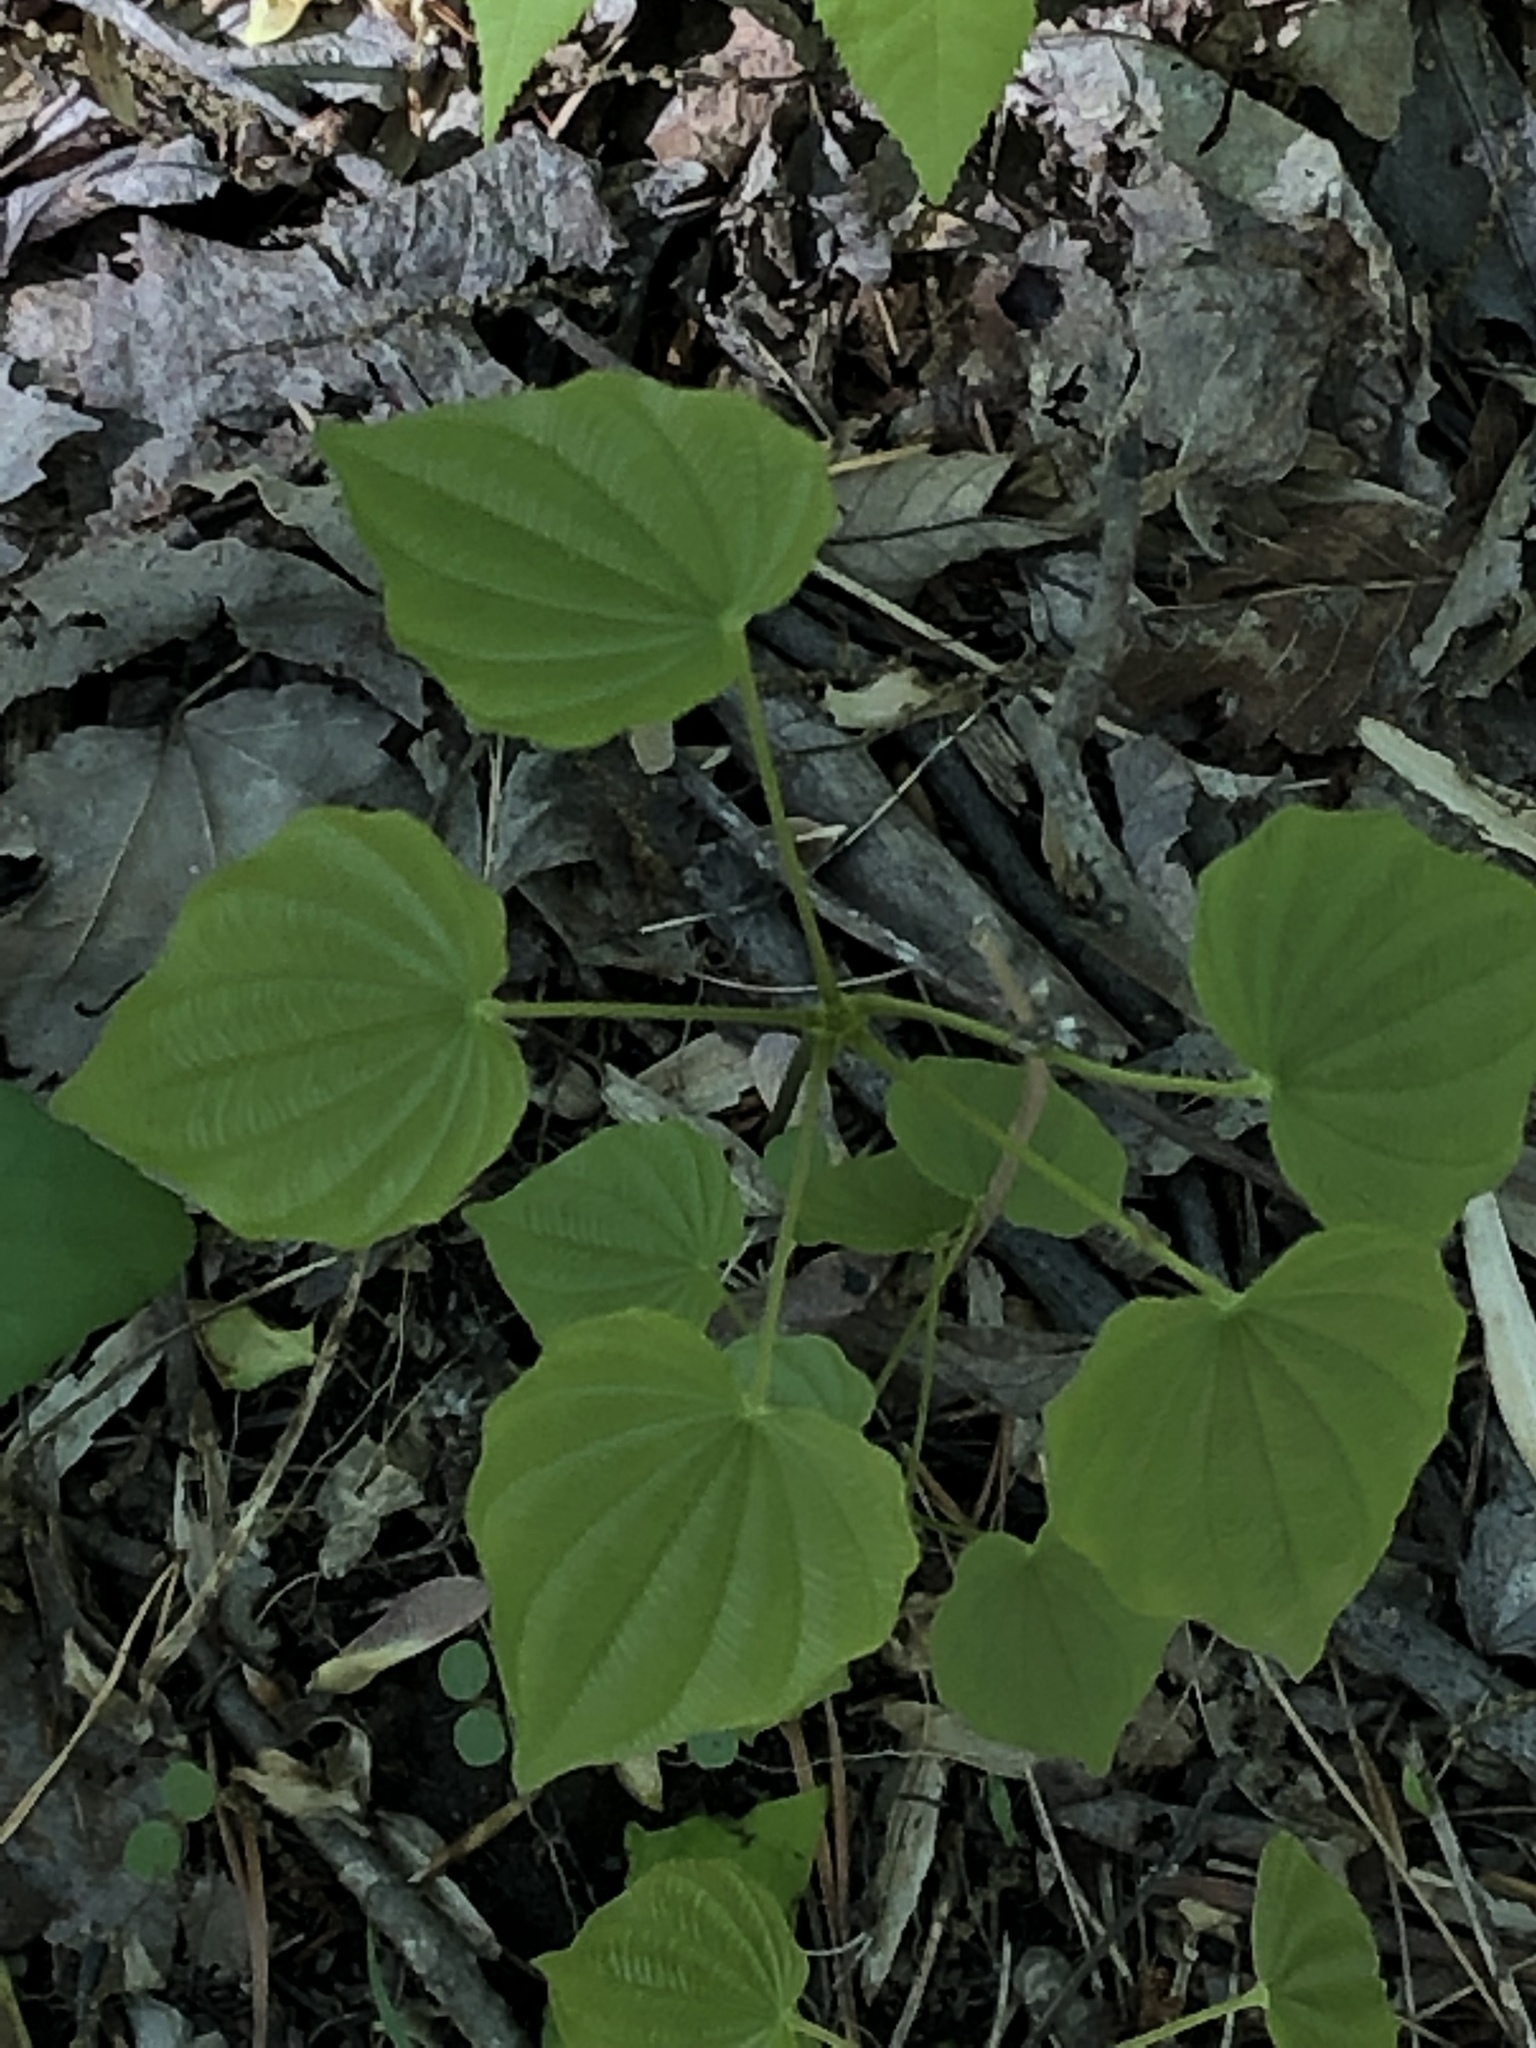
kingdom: Plantae
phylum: Tracheophyta
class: Liliopsida
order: Dioscoreales
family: Dioscoreaceae
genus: Dioscorea
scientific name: Dioscorea villosa
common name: Wild yam
